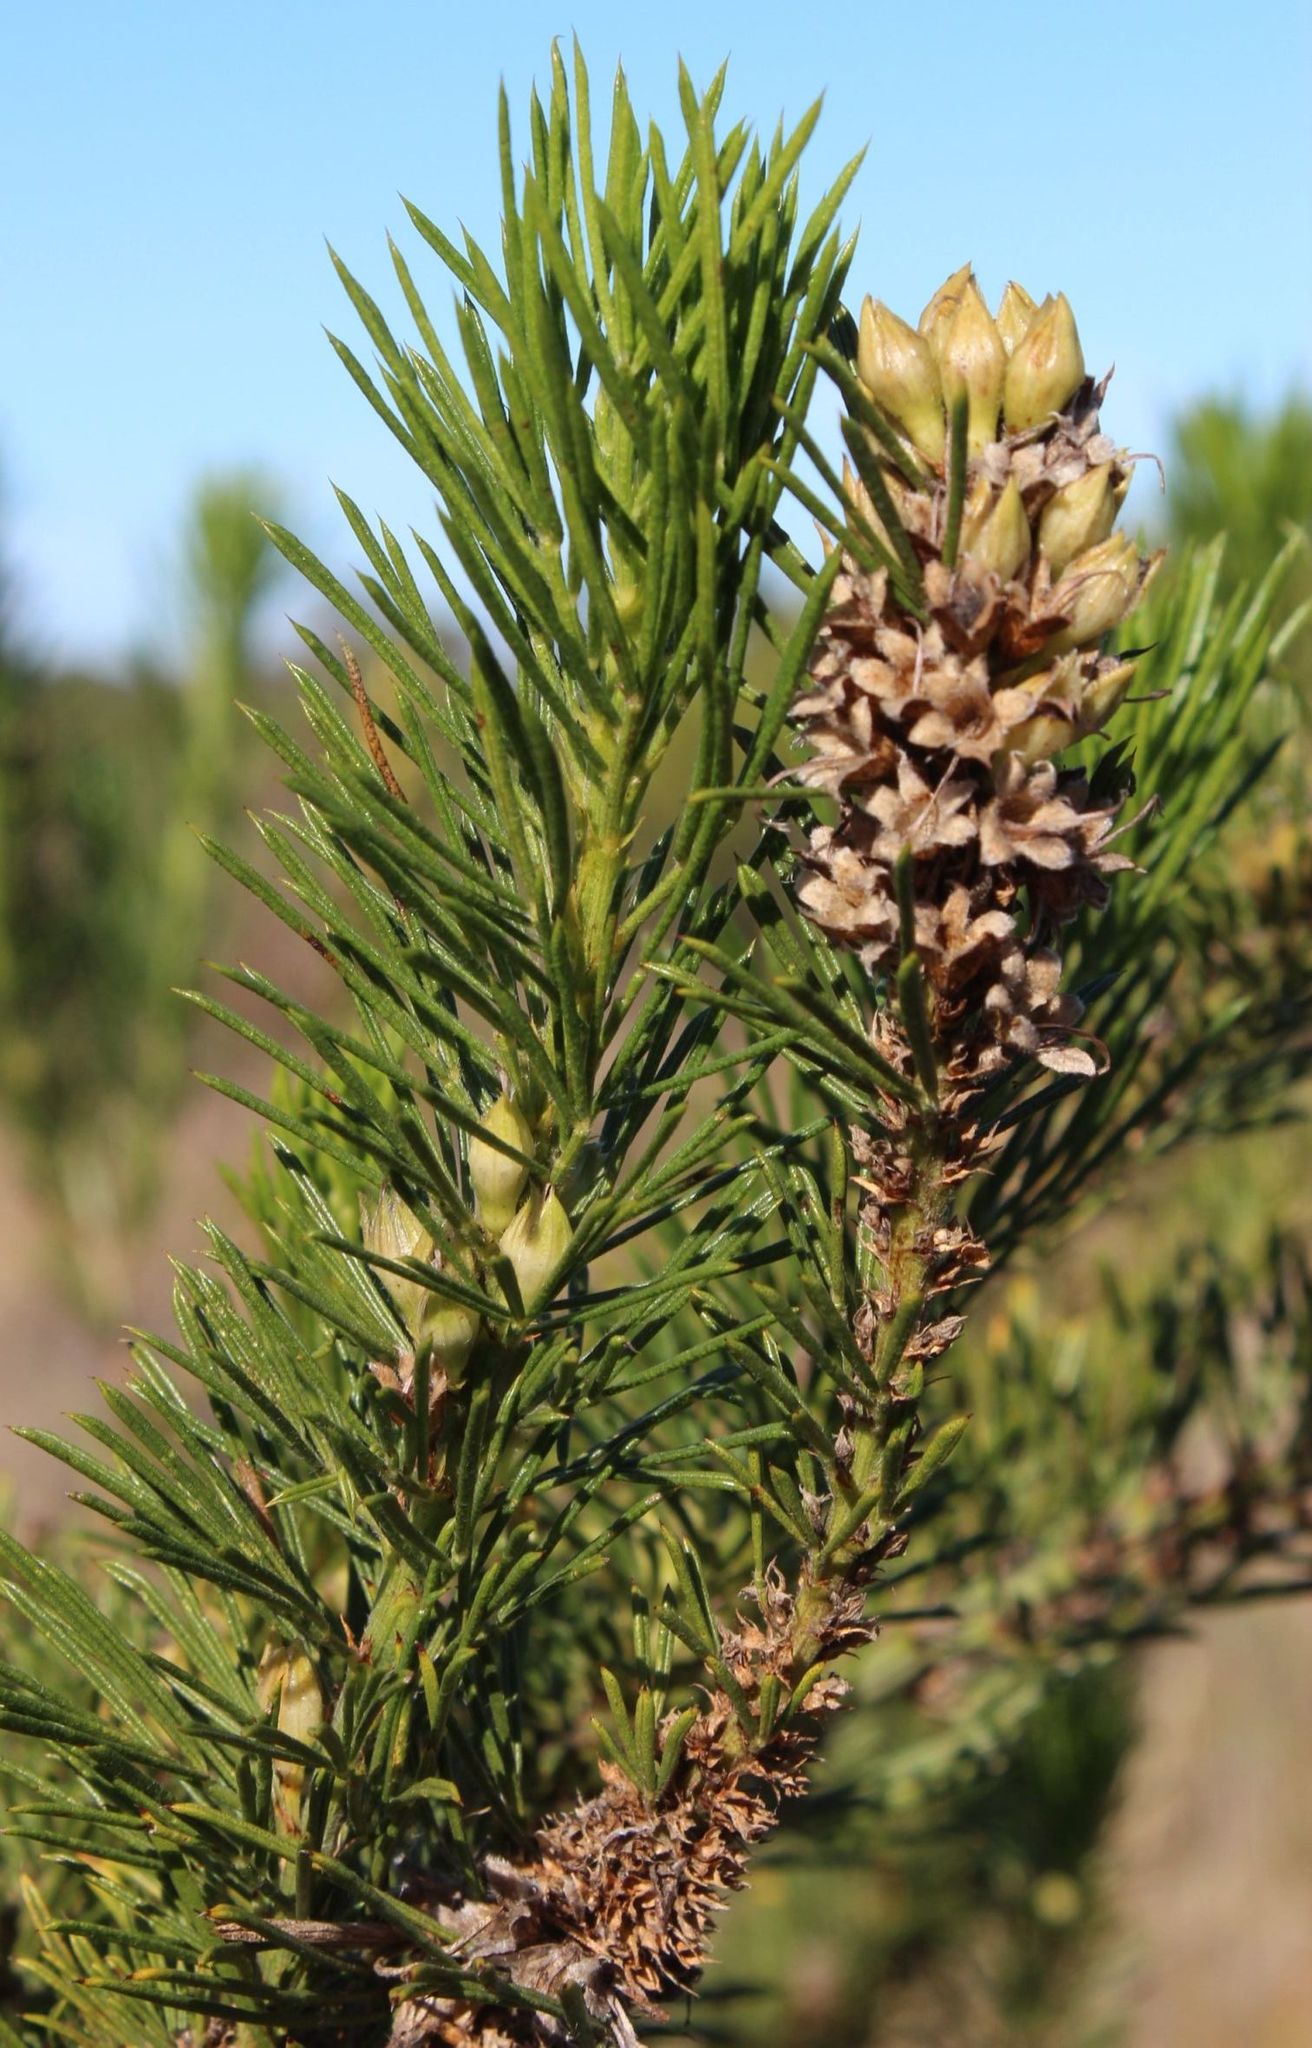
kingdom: Plantae
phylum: Tracheophyta
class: Magnoliopsida
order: Fabales
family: Fabaceae
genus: Psoralea
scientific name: Psoralea pinnata
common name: African scurfpea
